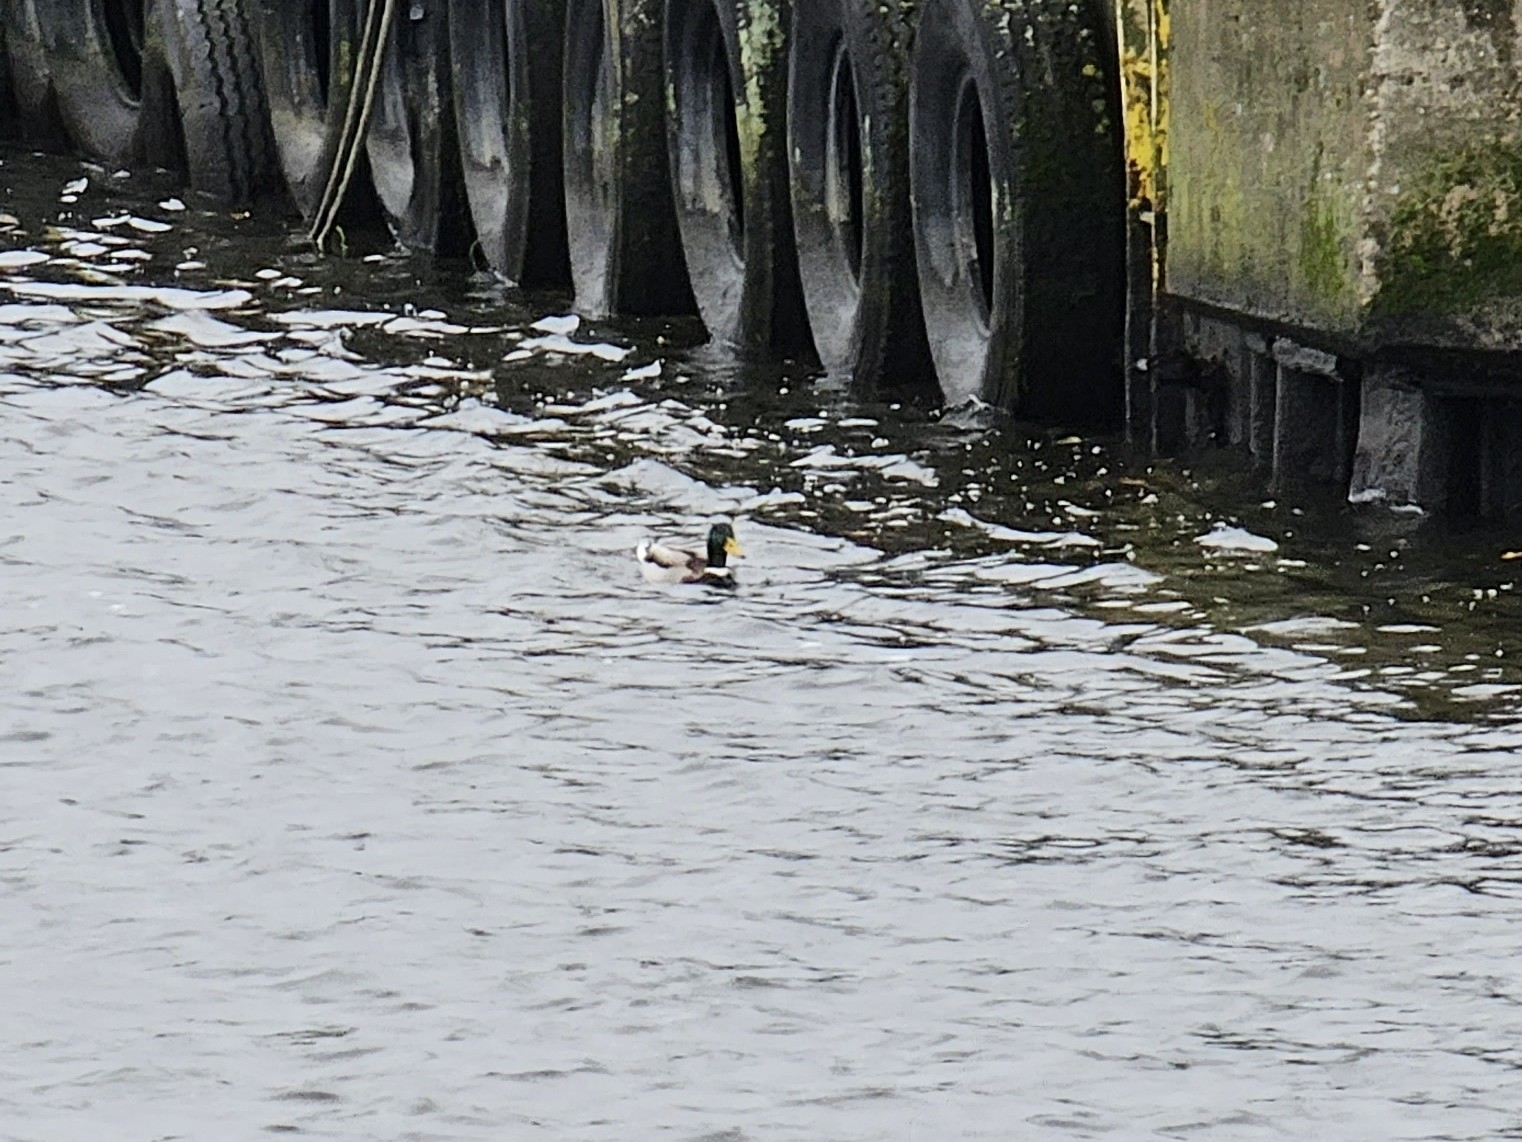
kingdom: Animalia
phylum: Chordata
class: Aves
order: Anseriformes
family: Anatidae
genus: Anas
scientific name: Anas platyrhynchos
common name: Mallard
